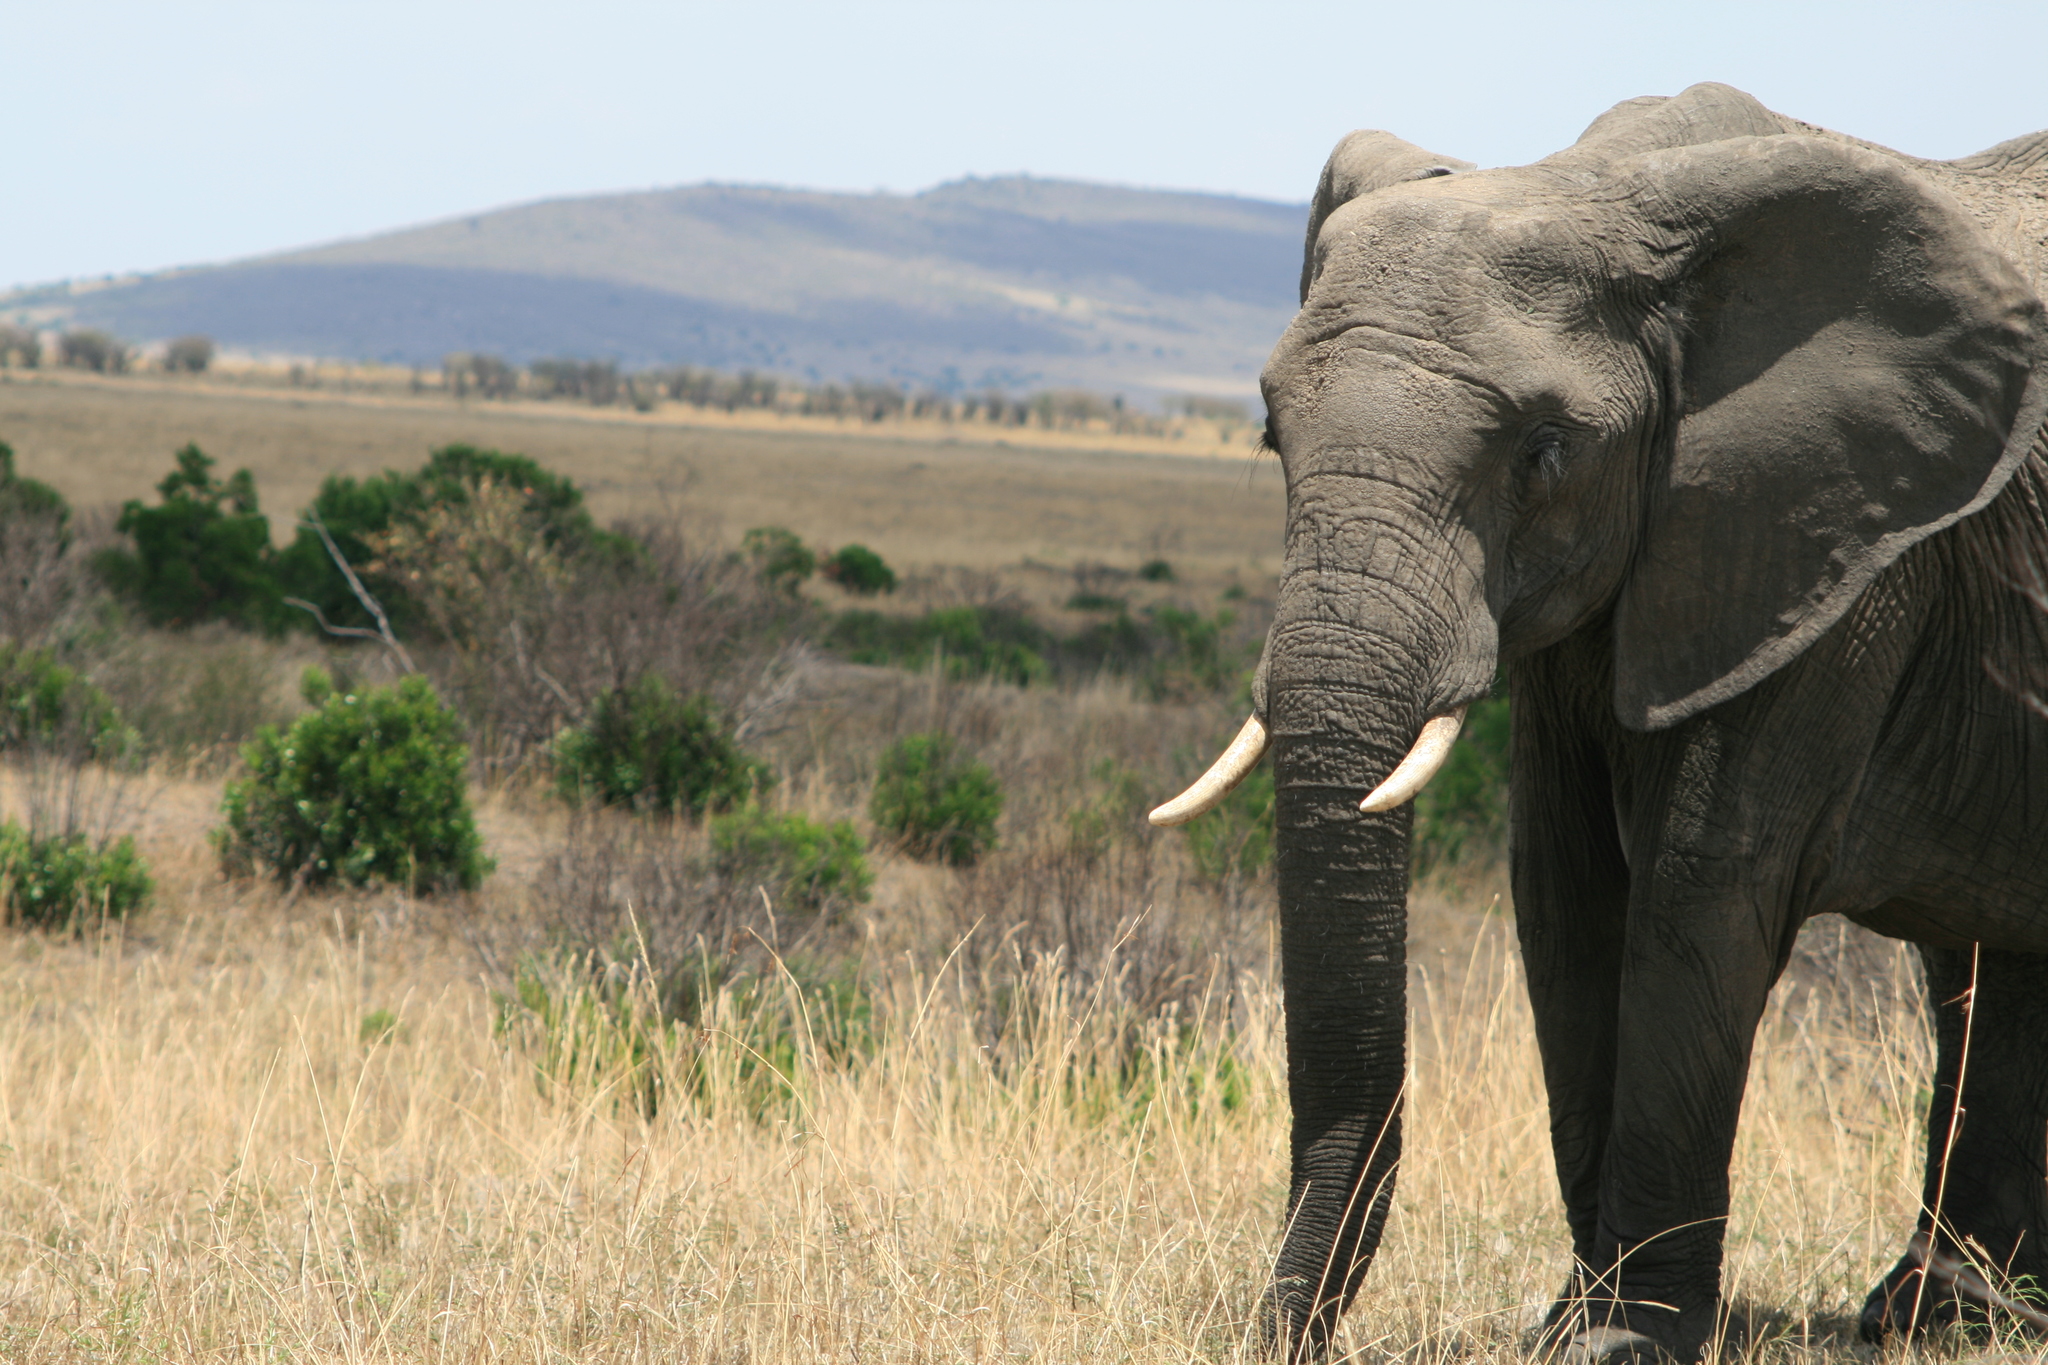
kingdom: Animalia
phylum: Chordata
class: Mammalia
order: Proboscidea
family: Elephantidae
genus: Loxodonta
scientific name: Loxodonta africana
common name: African elephant
